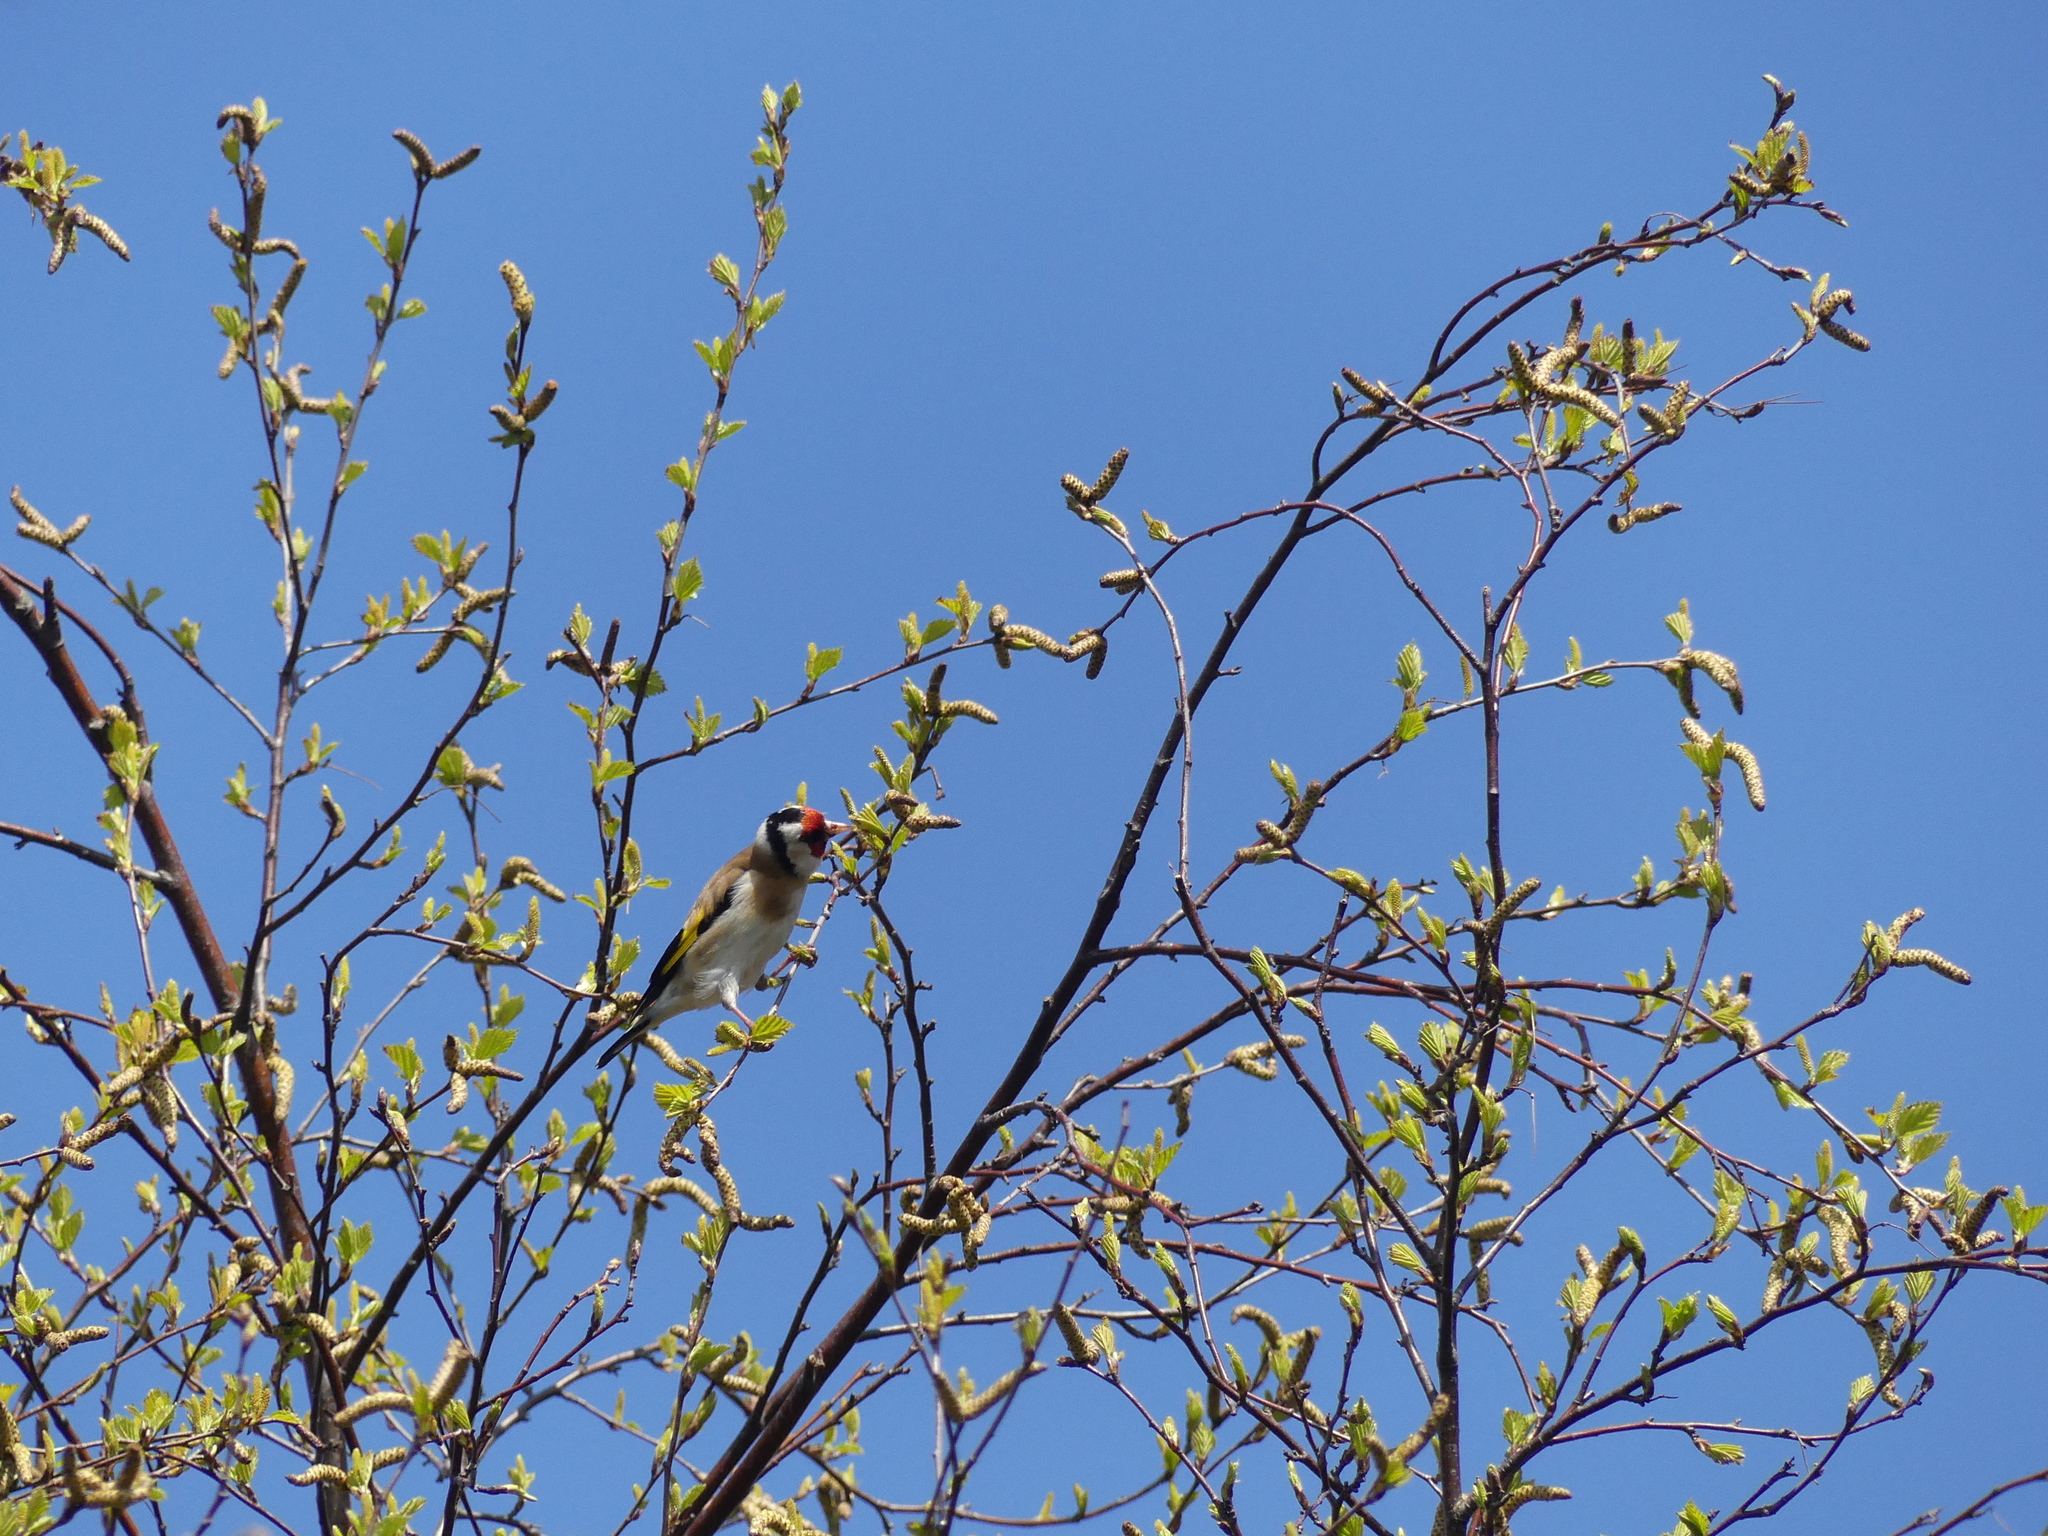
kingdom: Animalia
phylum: Chordata
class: Aves
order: Passeriformes
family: Fringillidae
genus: Carduelis
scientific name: Carduelis carduelis
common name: European goldfinch
